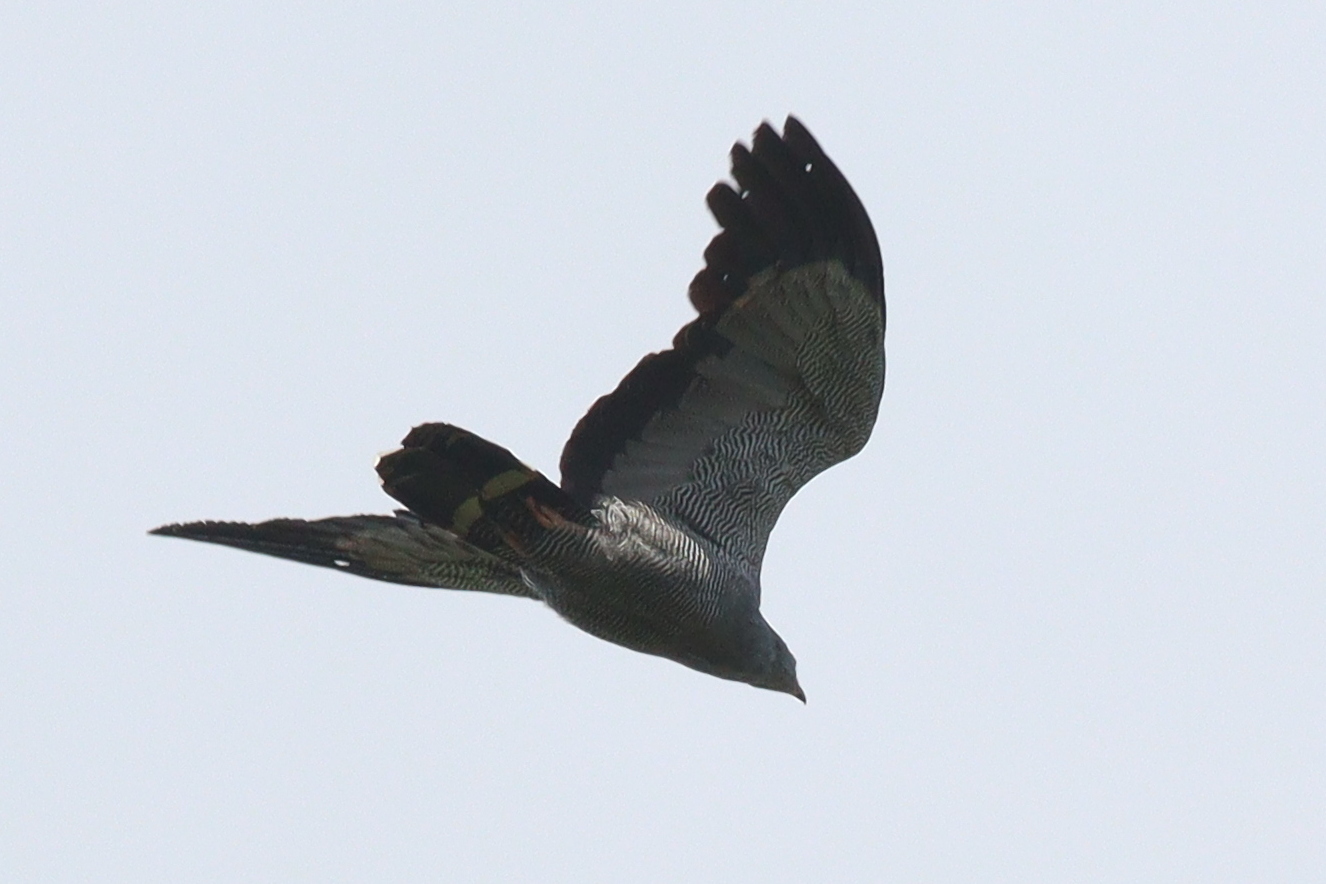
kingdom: Animalia
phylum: Chordata
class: Aves
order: Accipitriformes
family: Accipitridae
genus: Polyboroides
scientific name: Polyboroides typus
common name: African harrier-hawk
